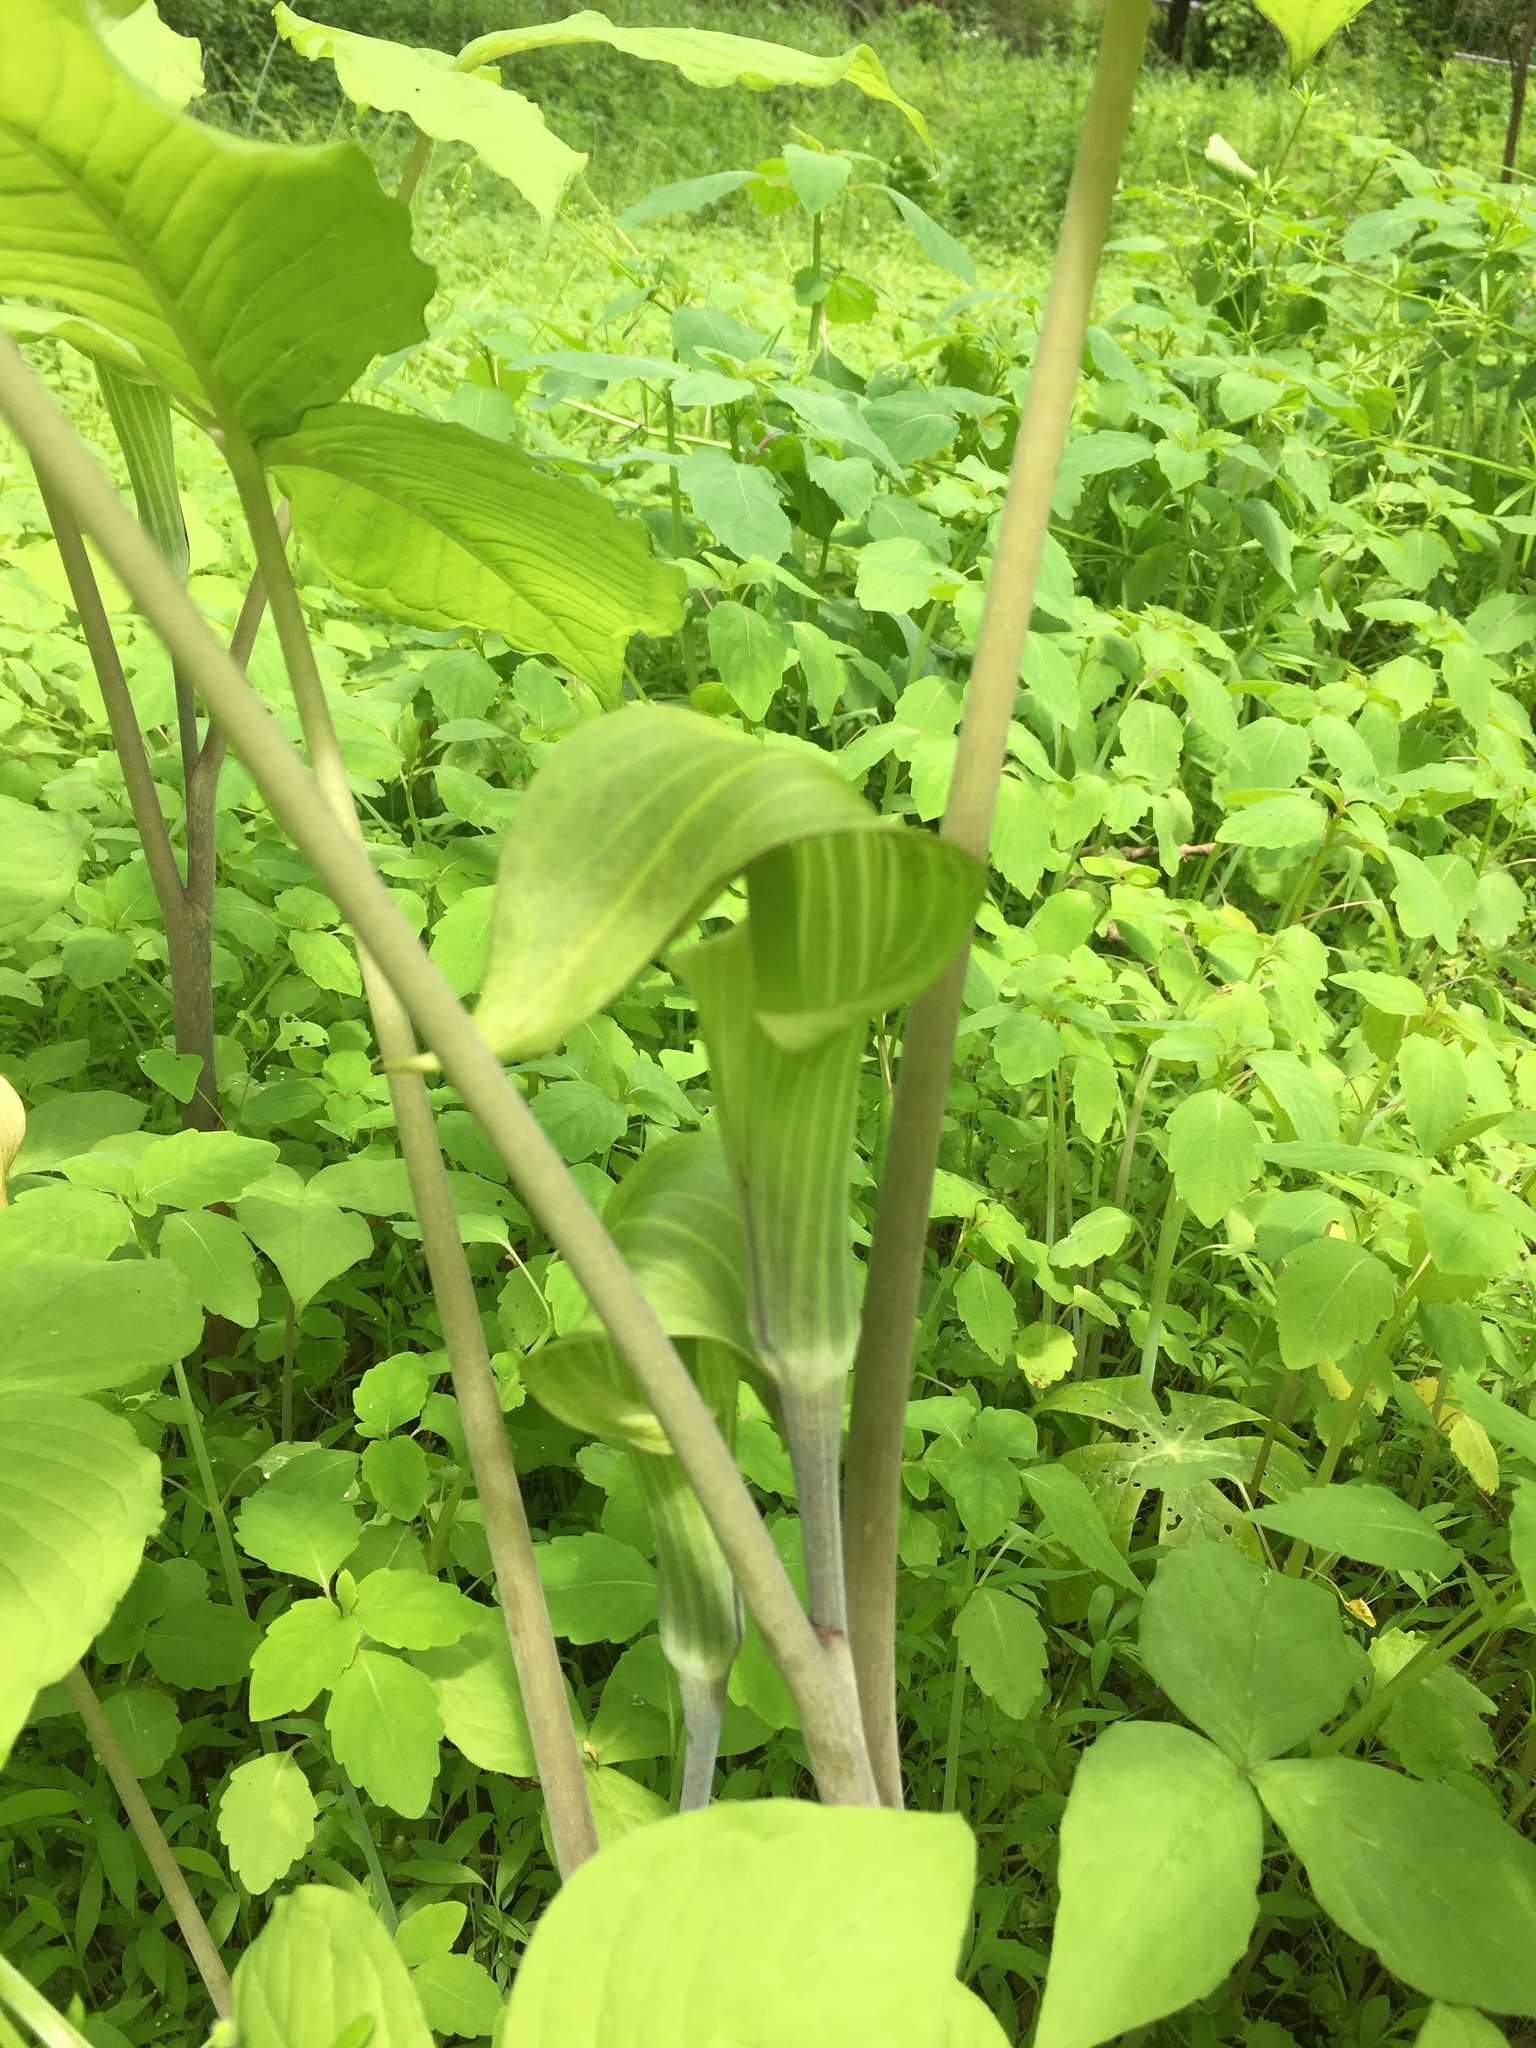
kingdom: Plantae
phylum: Tracheophyta
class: Liliopsida
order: Alismatales
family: Araceae
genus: Arisaema
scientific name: Arisaema triphyllum
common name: Jack-in-the-pulpit
